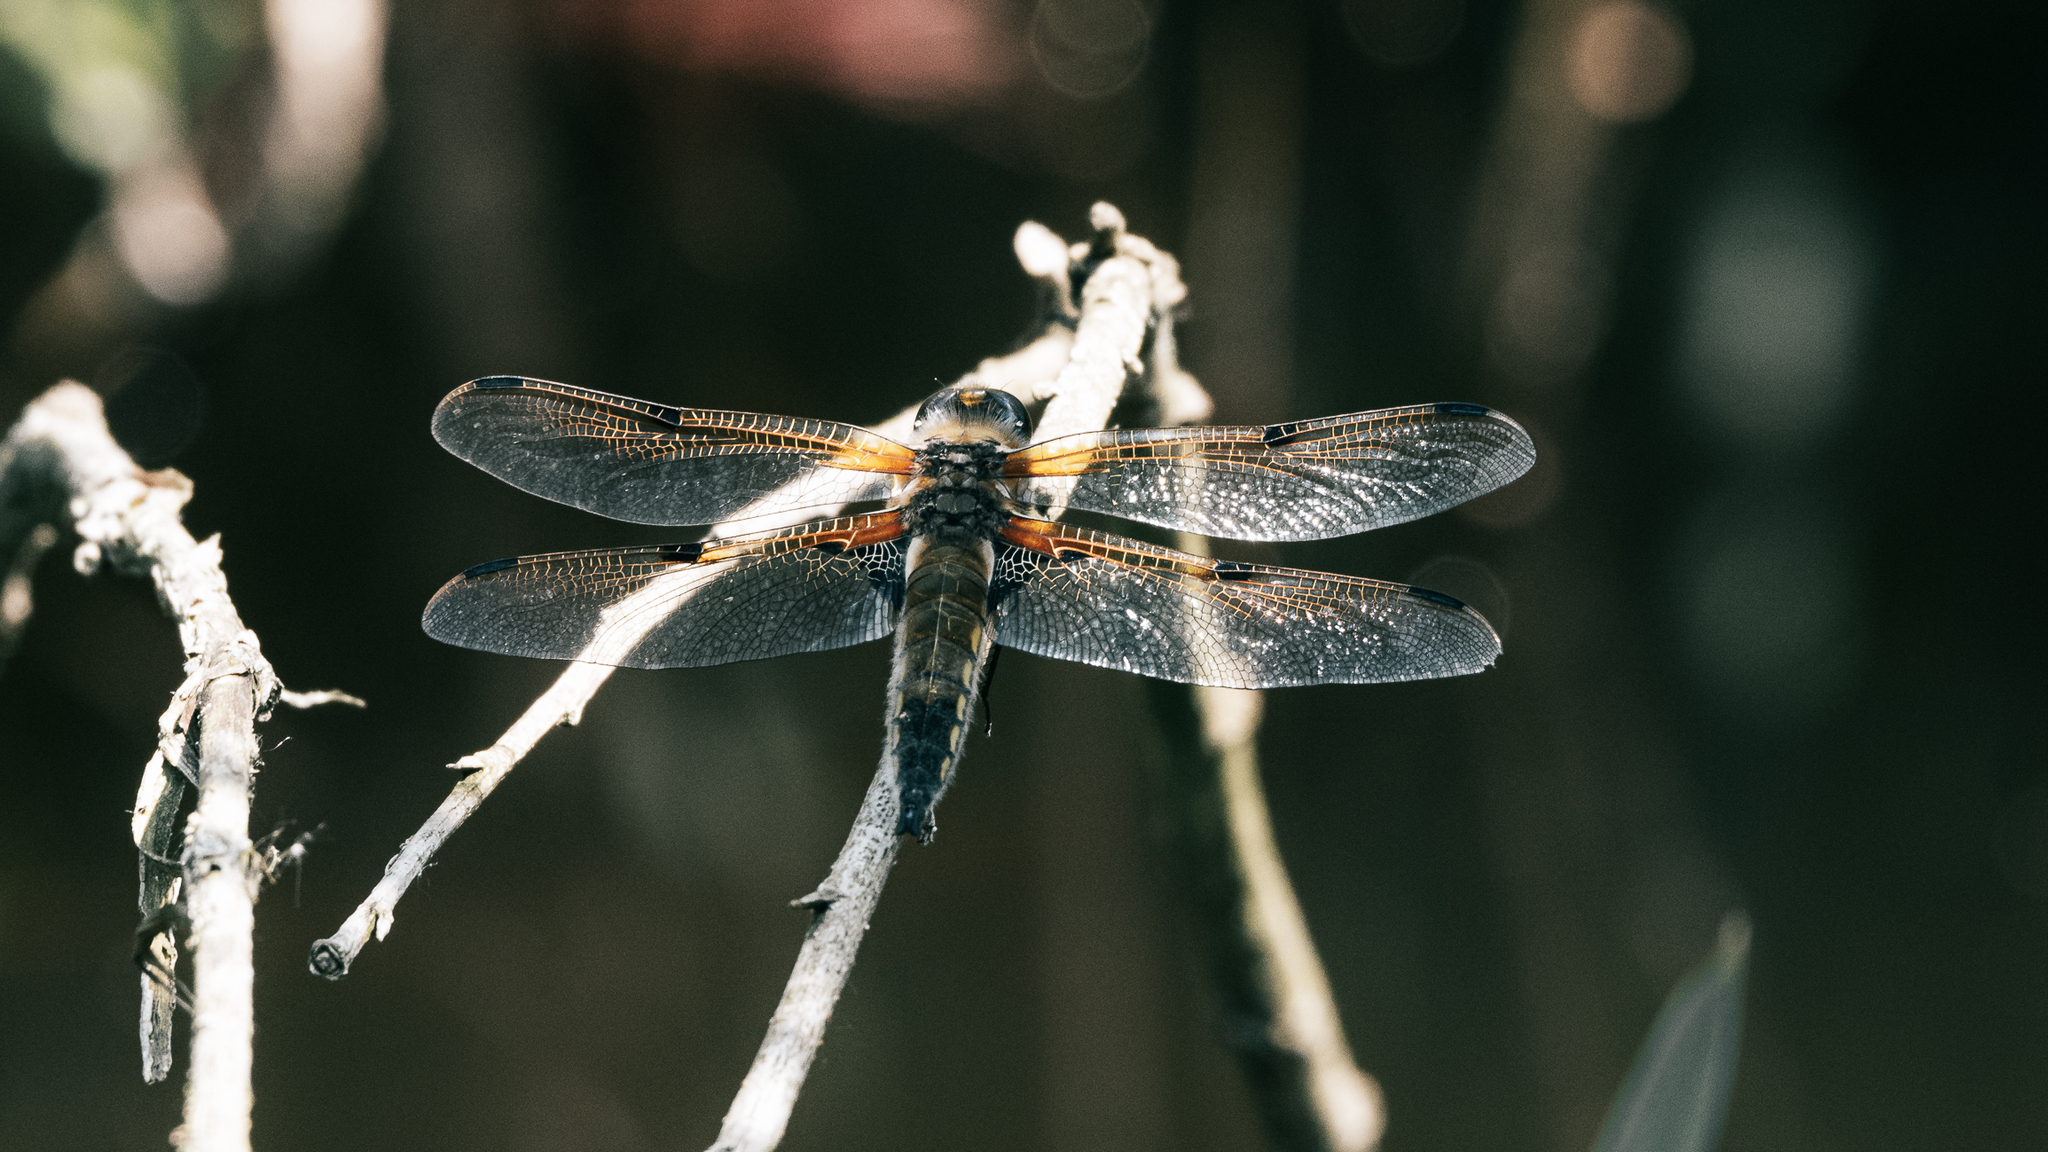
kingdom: Animalia
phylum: Arthropoda
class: Insecta
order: Odonata
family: Libellulidae
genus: Libellula
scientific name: Libellula quadrimaculata
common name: Four-spotted chaser
